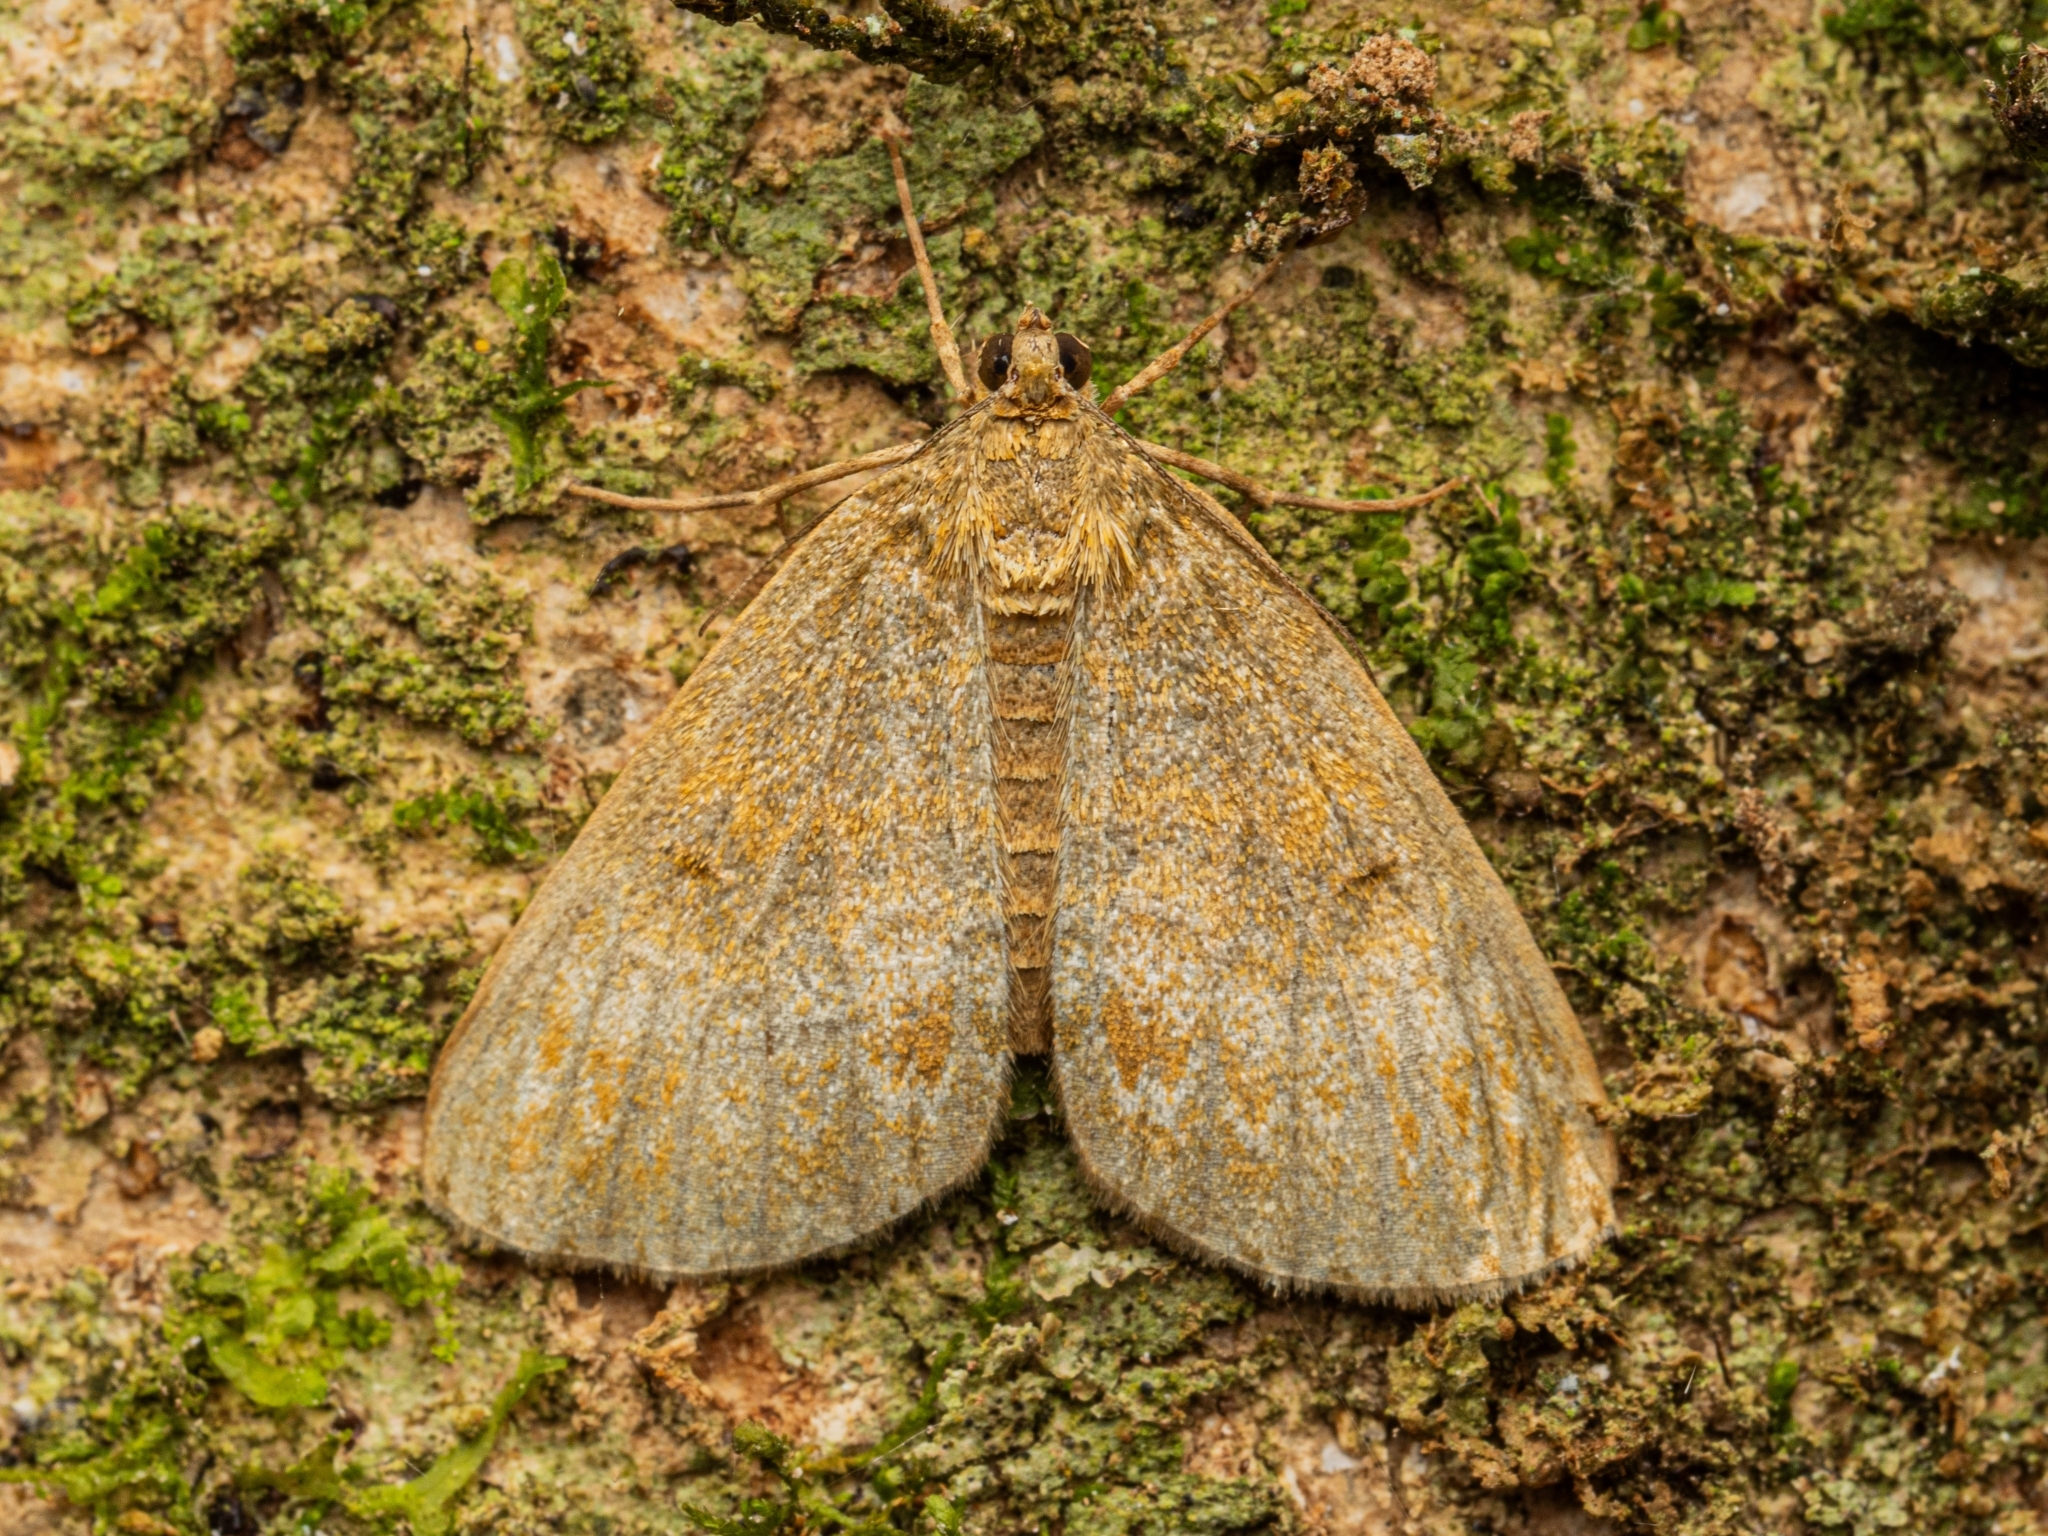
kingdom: Animalia
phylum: Arthropoda
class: Insecta
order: Lepidoptera
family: Geometridae
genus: Pseudocoremia
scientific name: Pseudocoremia indistincta
